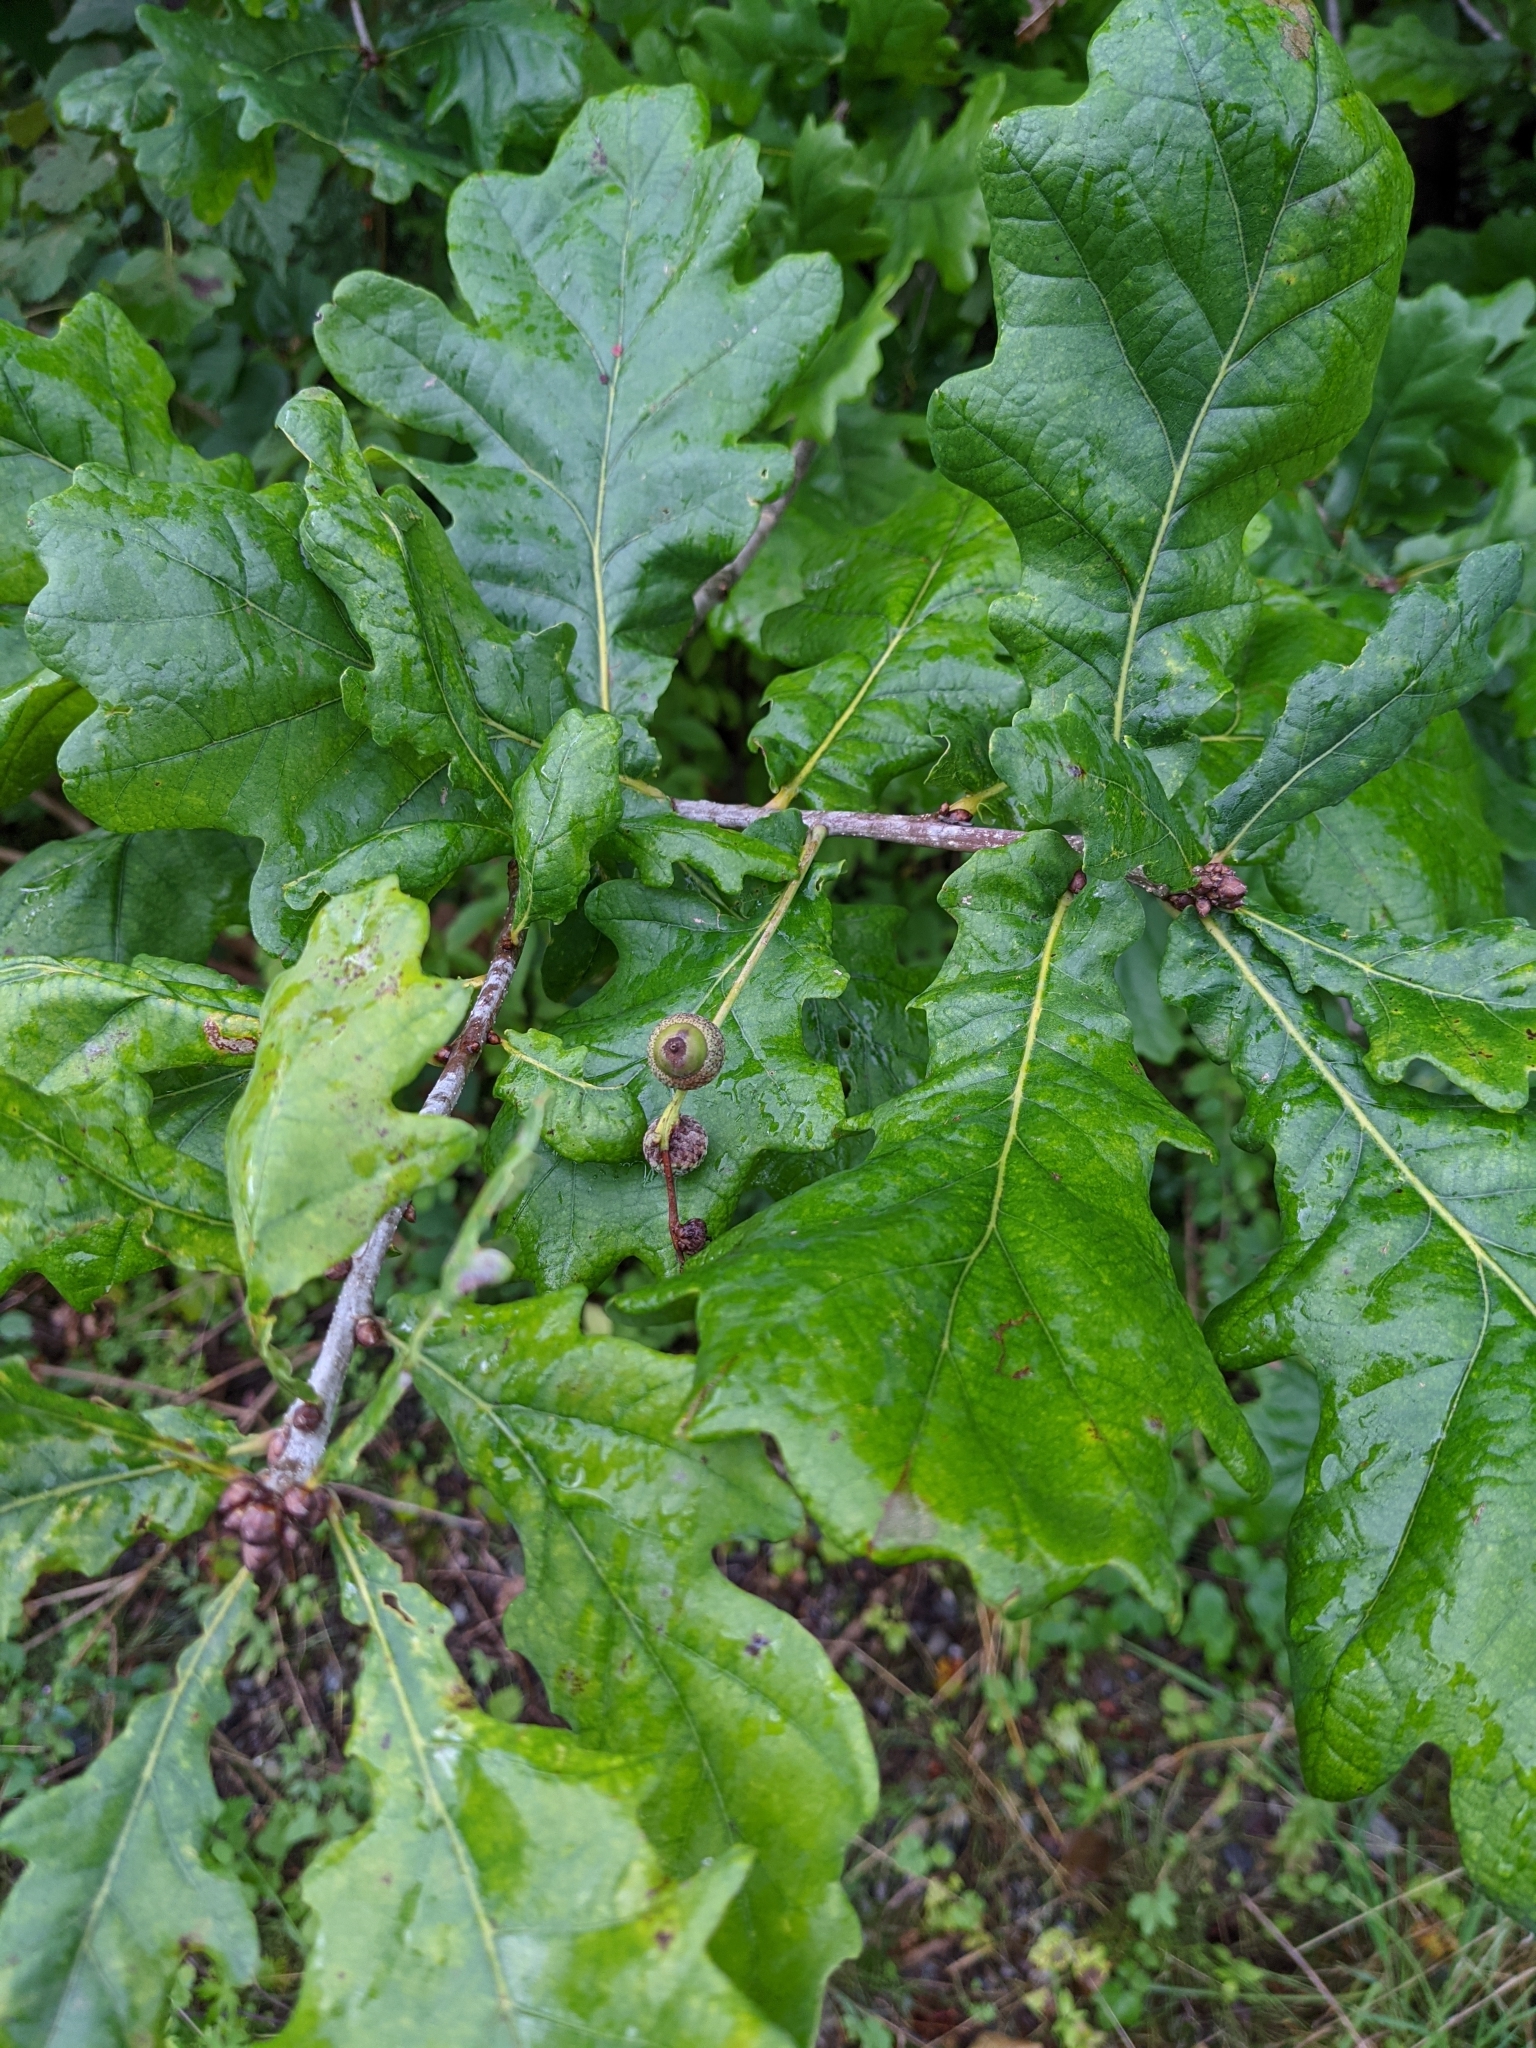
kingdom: Plantae
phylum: Tracheophyta
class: Magnoliopsida
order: Fagales
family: Fagaceae
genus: Quercus
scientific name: Quercus robur
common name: Pedunculate oak
